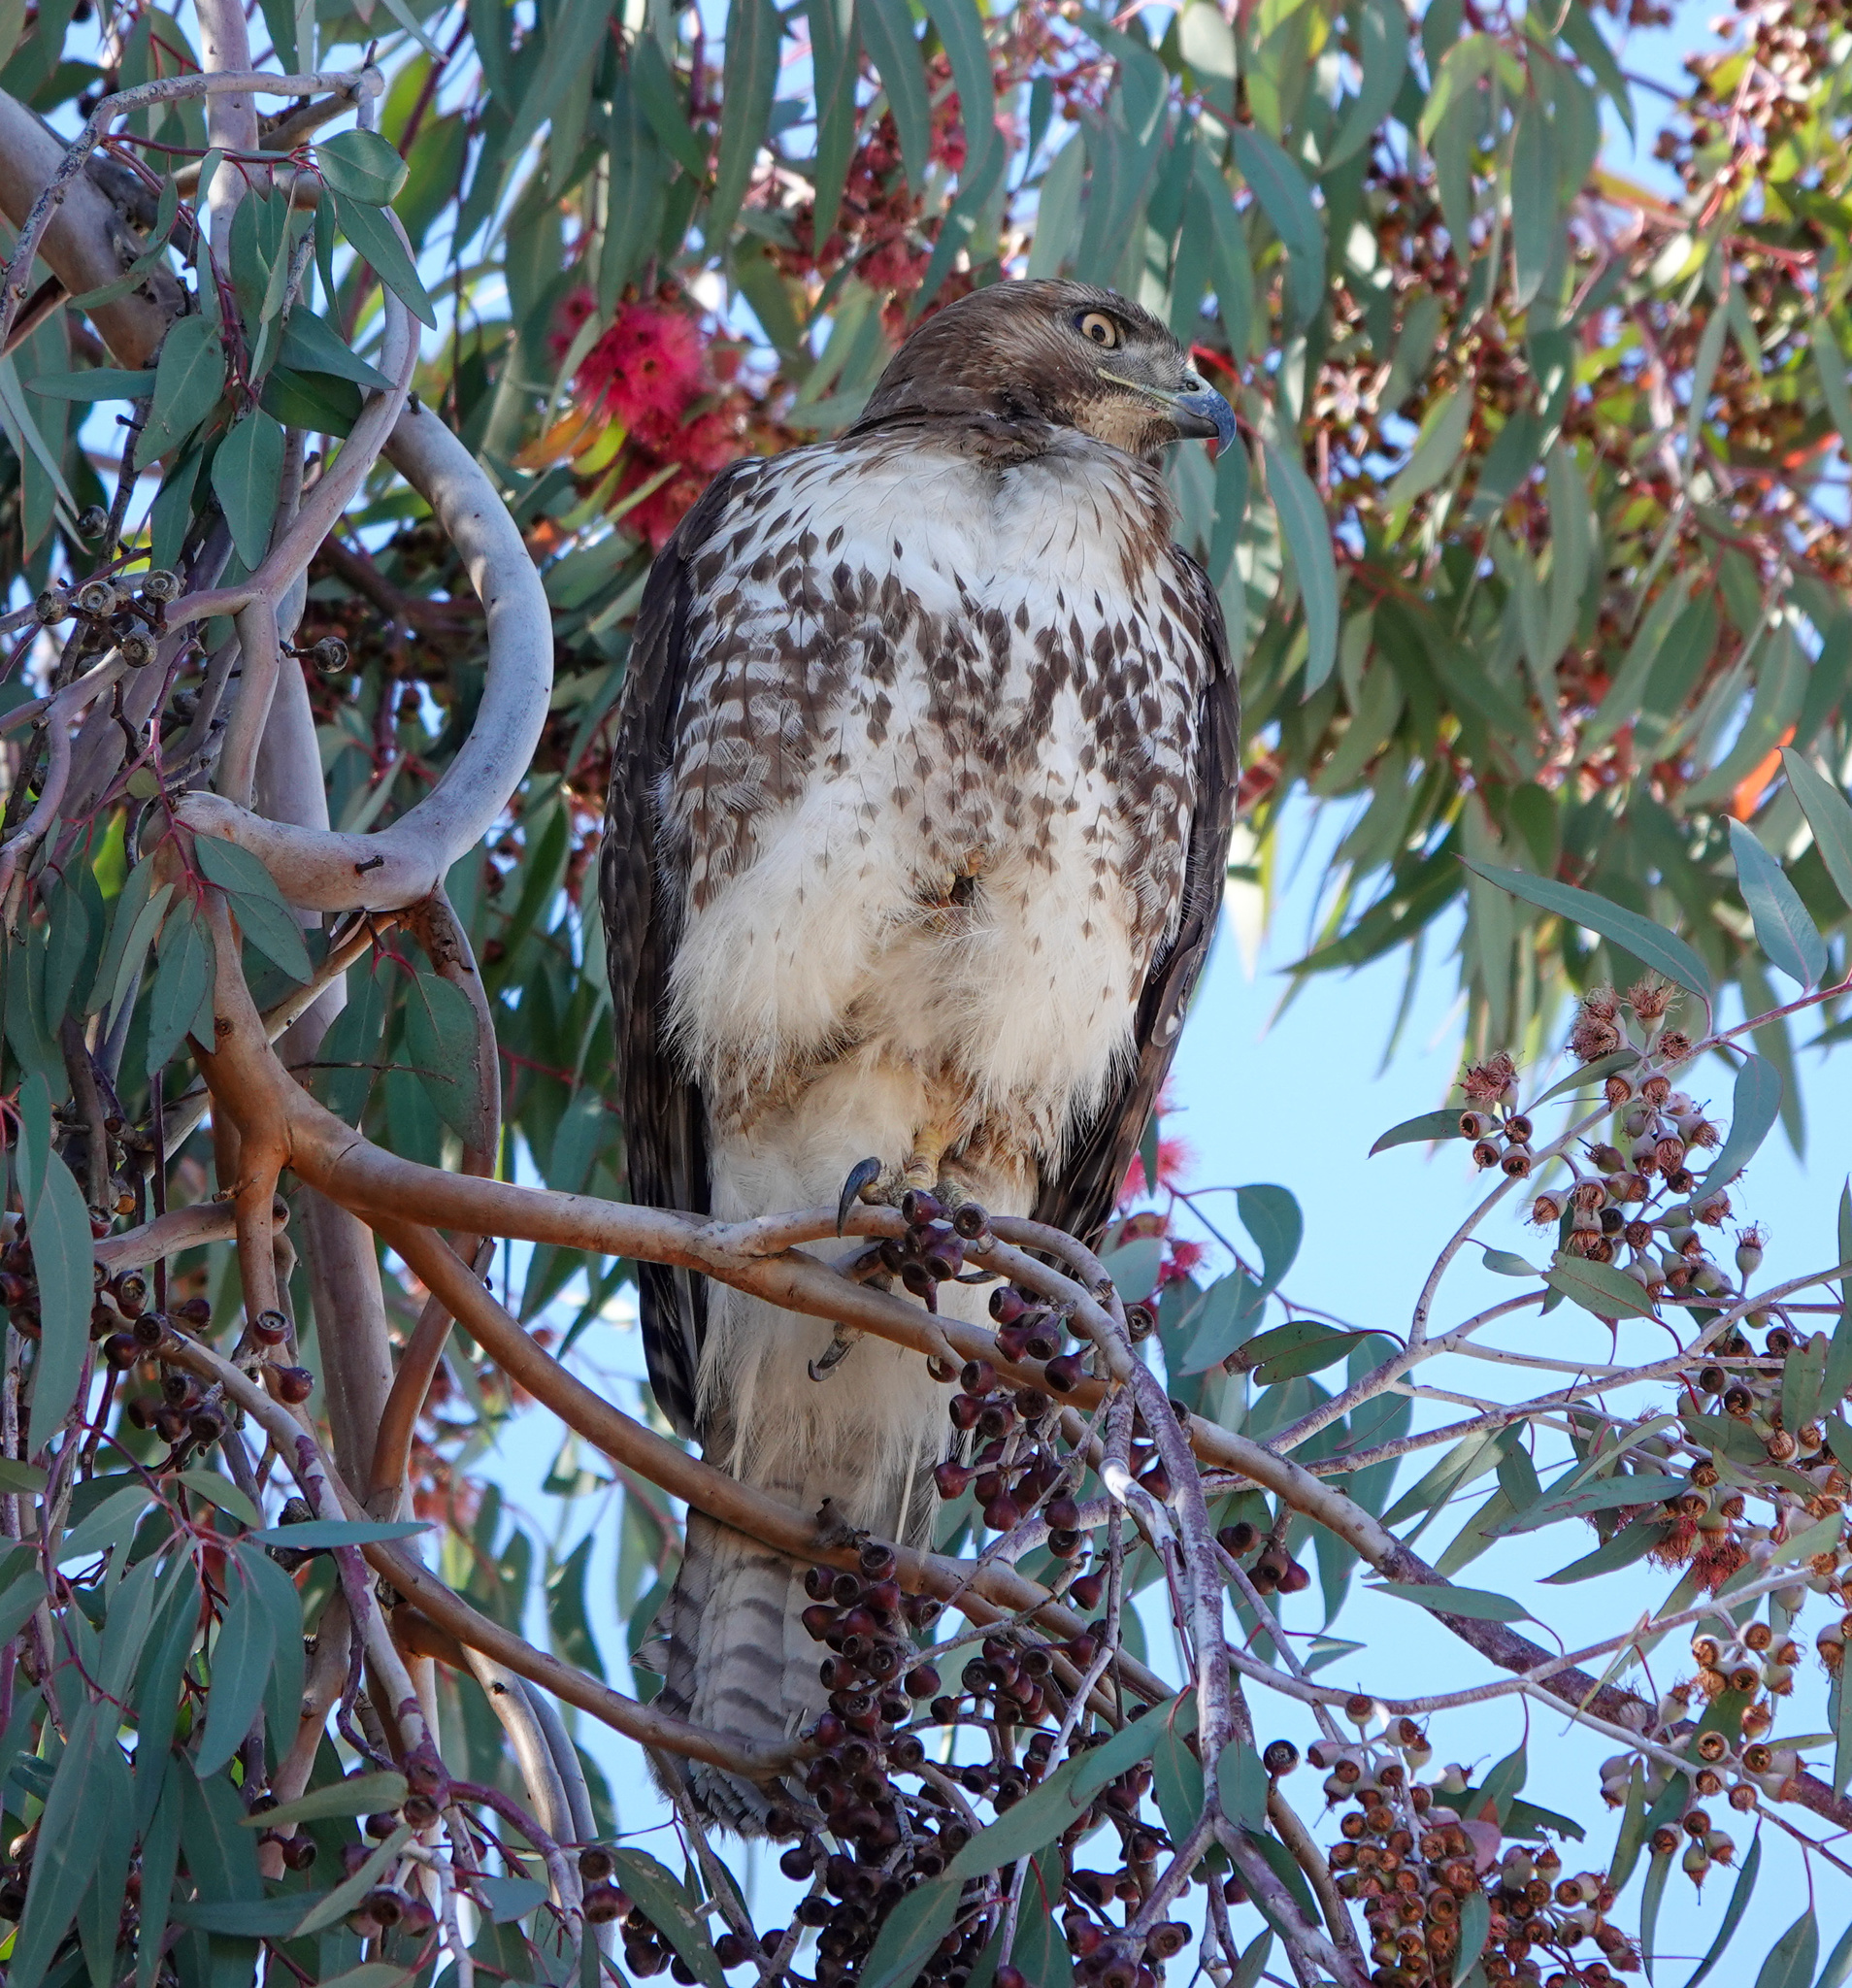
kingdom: Animalia
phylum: Chordata
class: Aves
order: Accipitriformes
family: Accipitridae
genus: Buteo
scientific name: Buteo jamaicensis
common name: Red-tailed hawk
